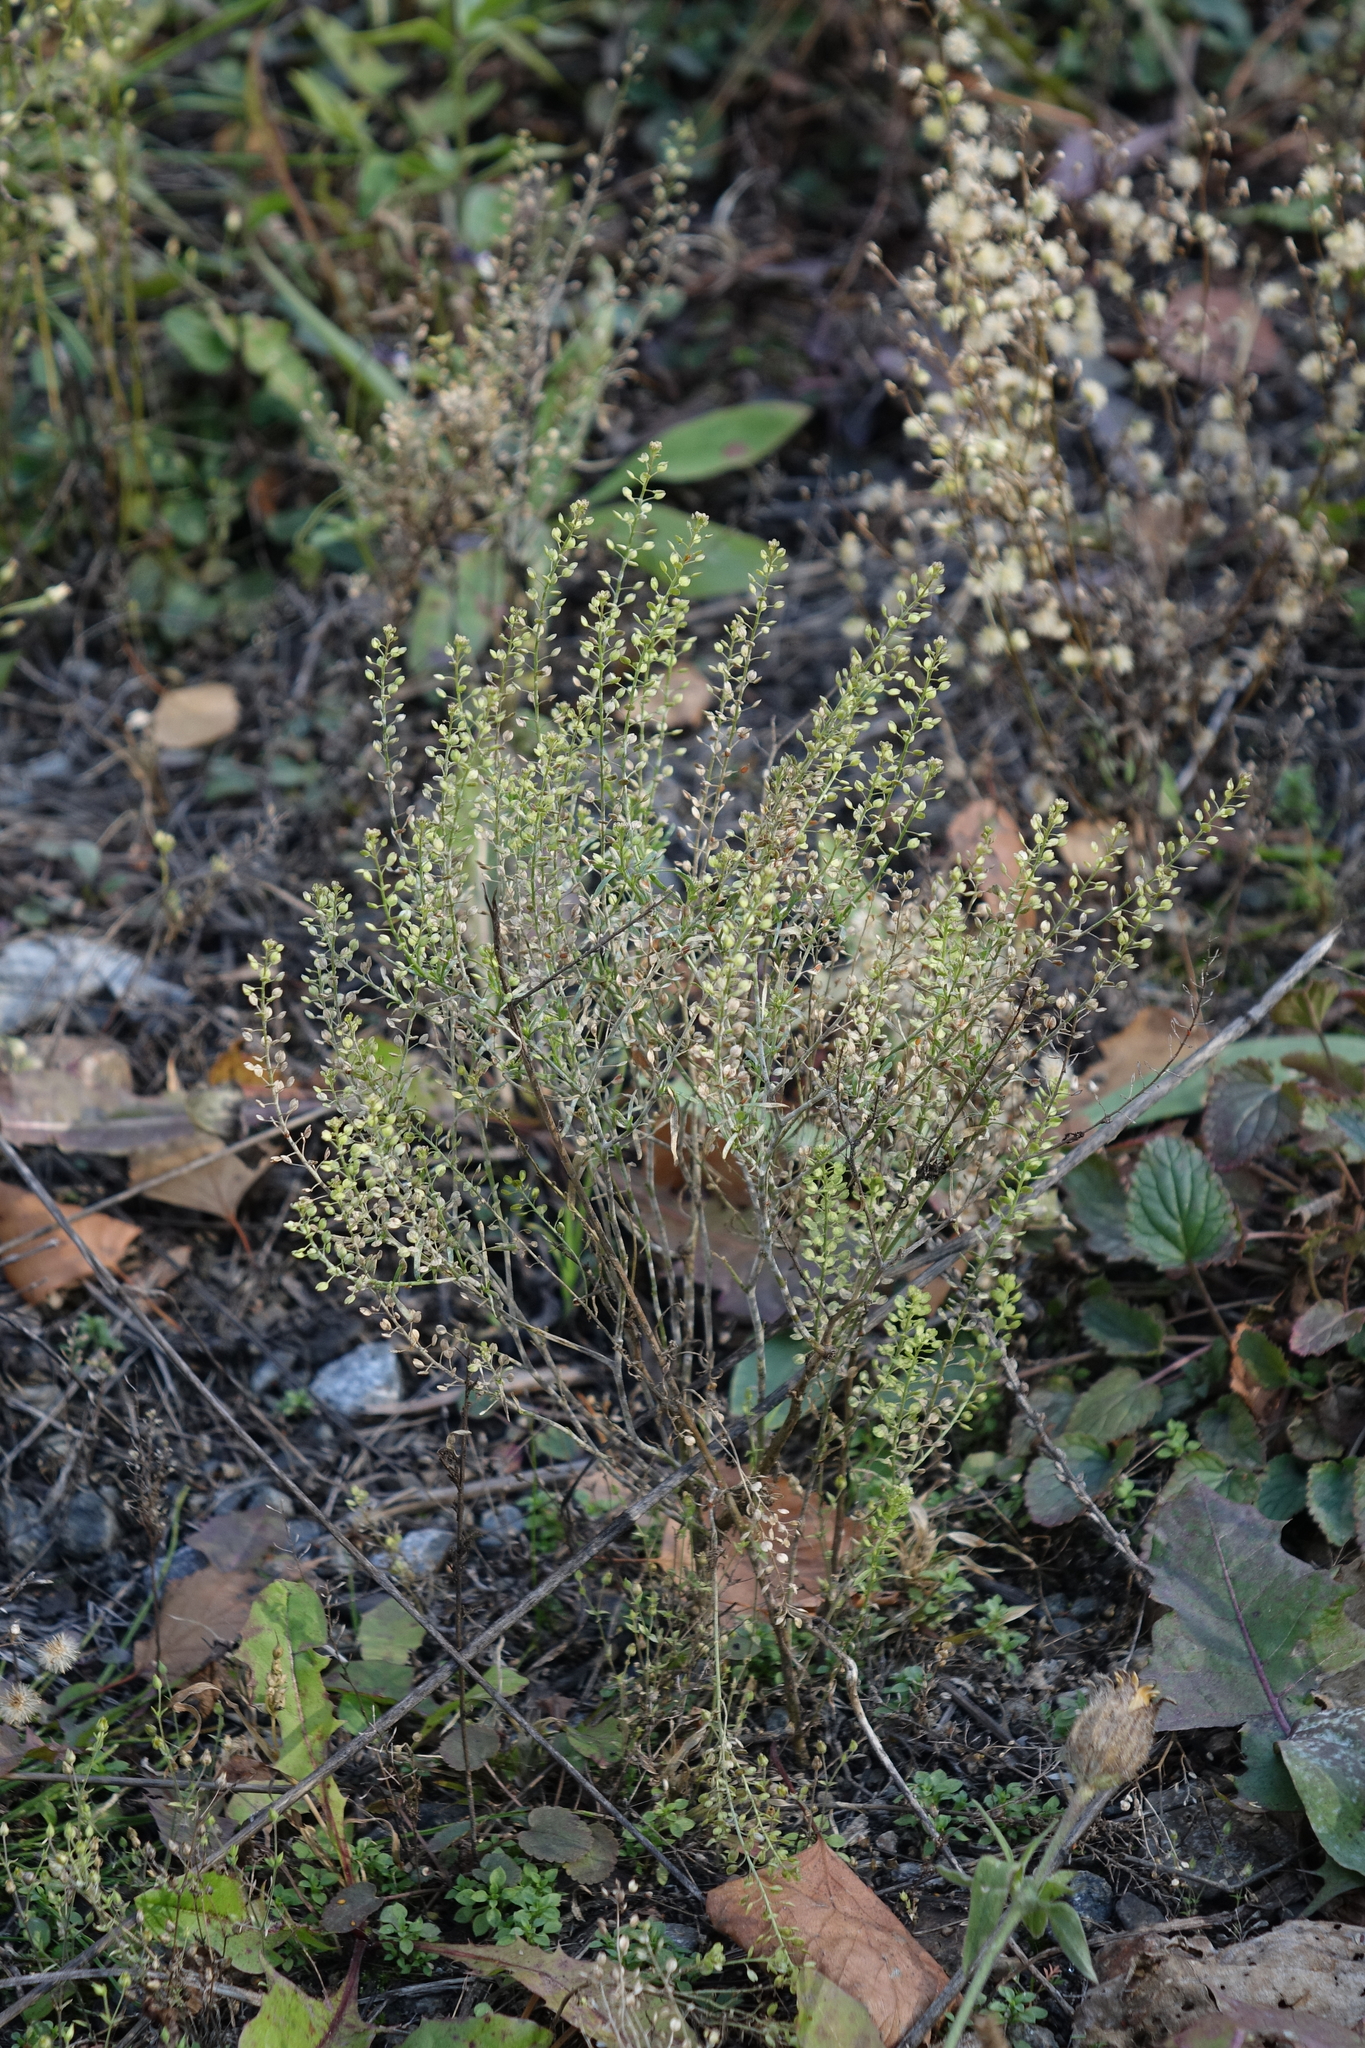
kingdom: Plantae
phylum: Tracheophyta
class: Magnoliopsida
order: Brassicales
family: Brassicaceae
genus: Lepidium
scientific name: Lepidium densiflorum
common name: Miner's pepperwort
